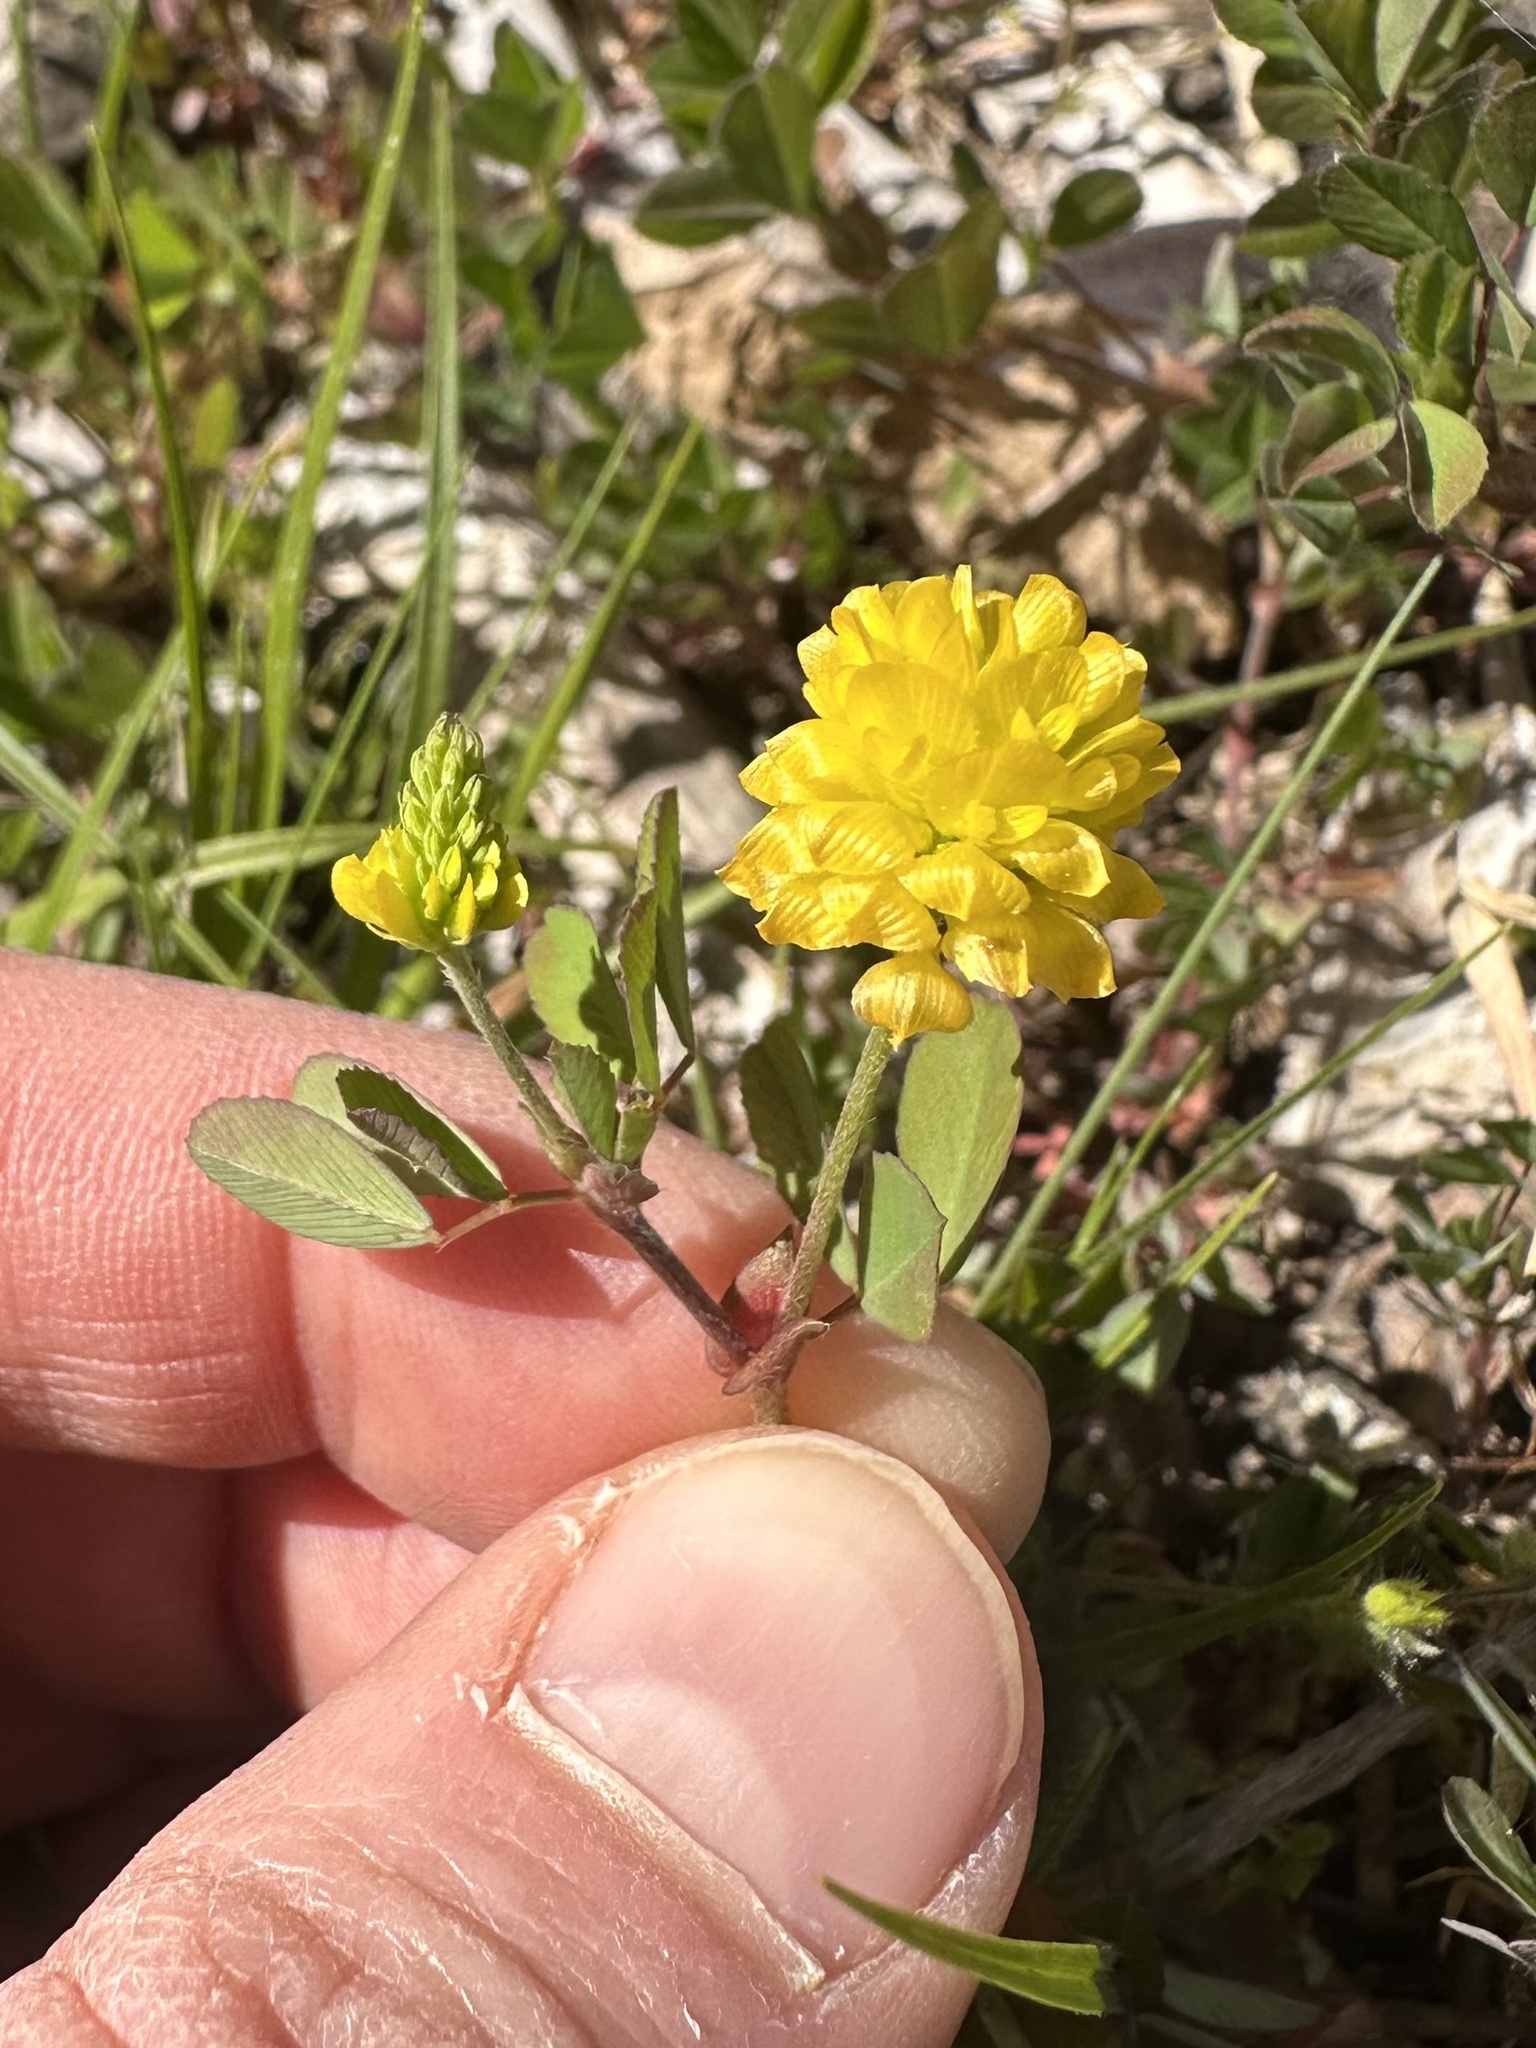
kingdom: Plantae
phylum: Tracheophyta
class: Magnoliopsida
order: Fabales
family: Fabaceae
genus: Trifolium
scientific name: Trifolium campestre
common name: Field clover
